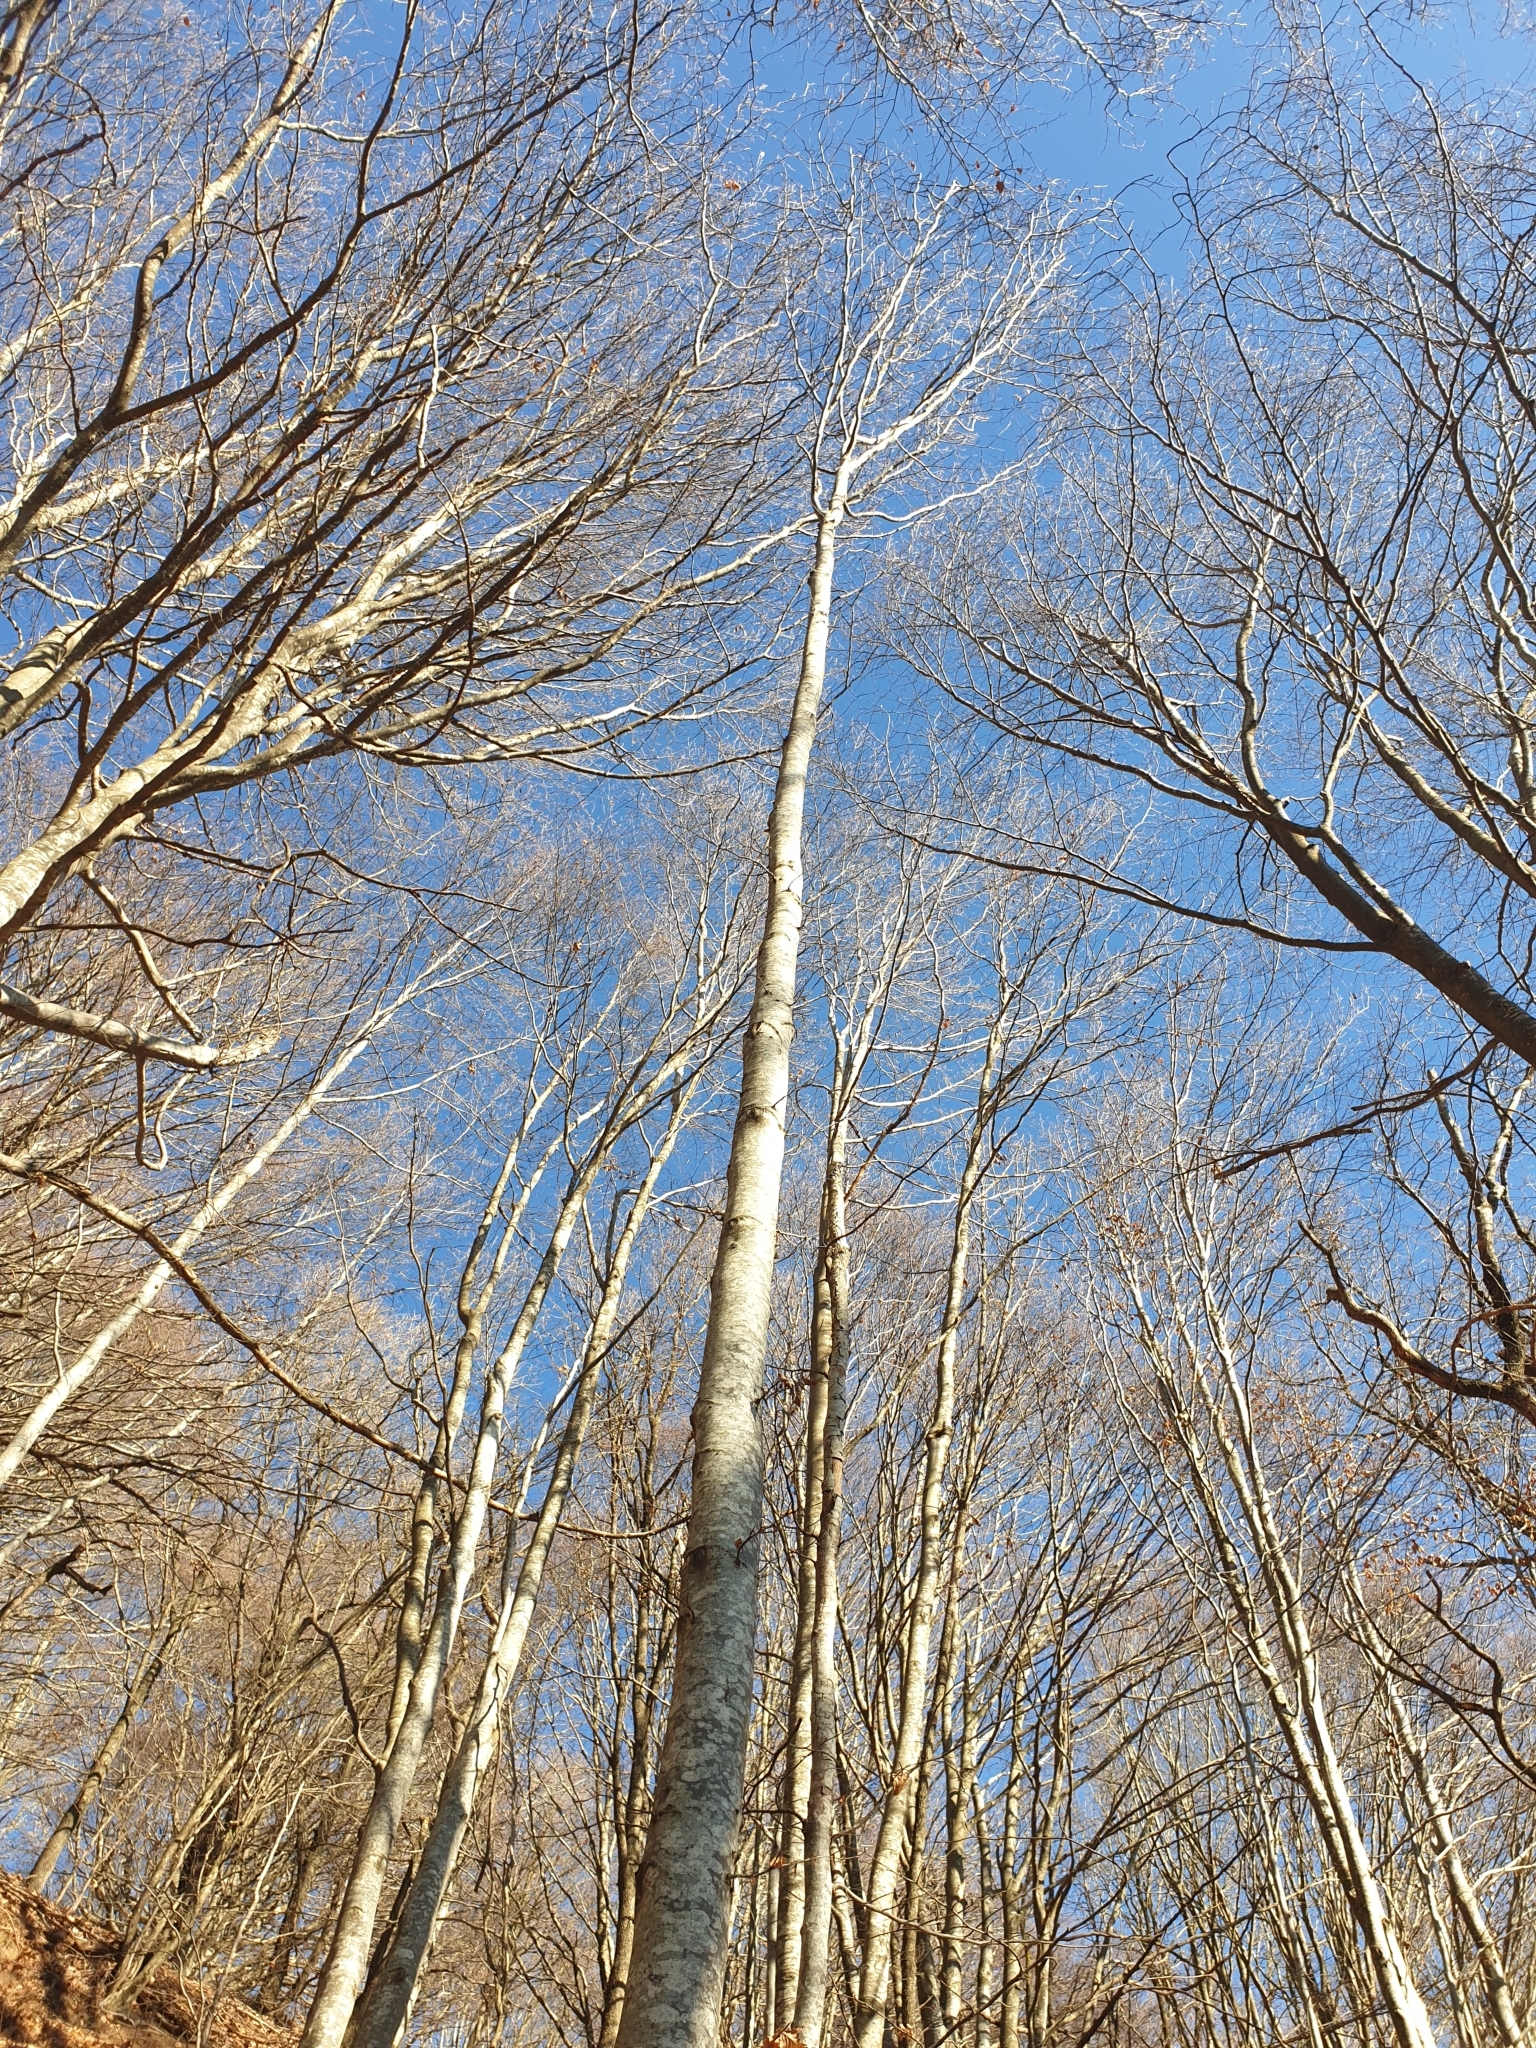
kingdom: Plantae
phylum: Tracheophyta
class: Magnoliopsida
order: Fagales
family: Fagaceae
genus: Fagus
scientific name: Fagus sylvatica
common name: Beech
